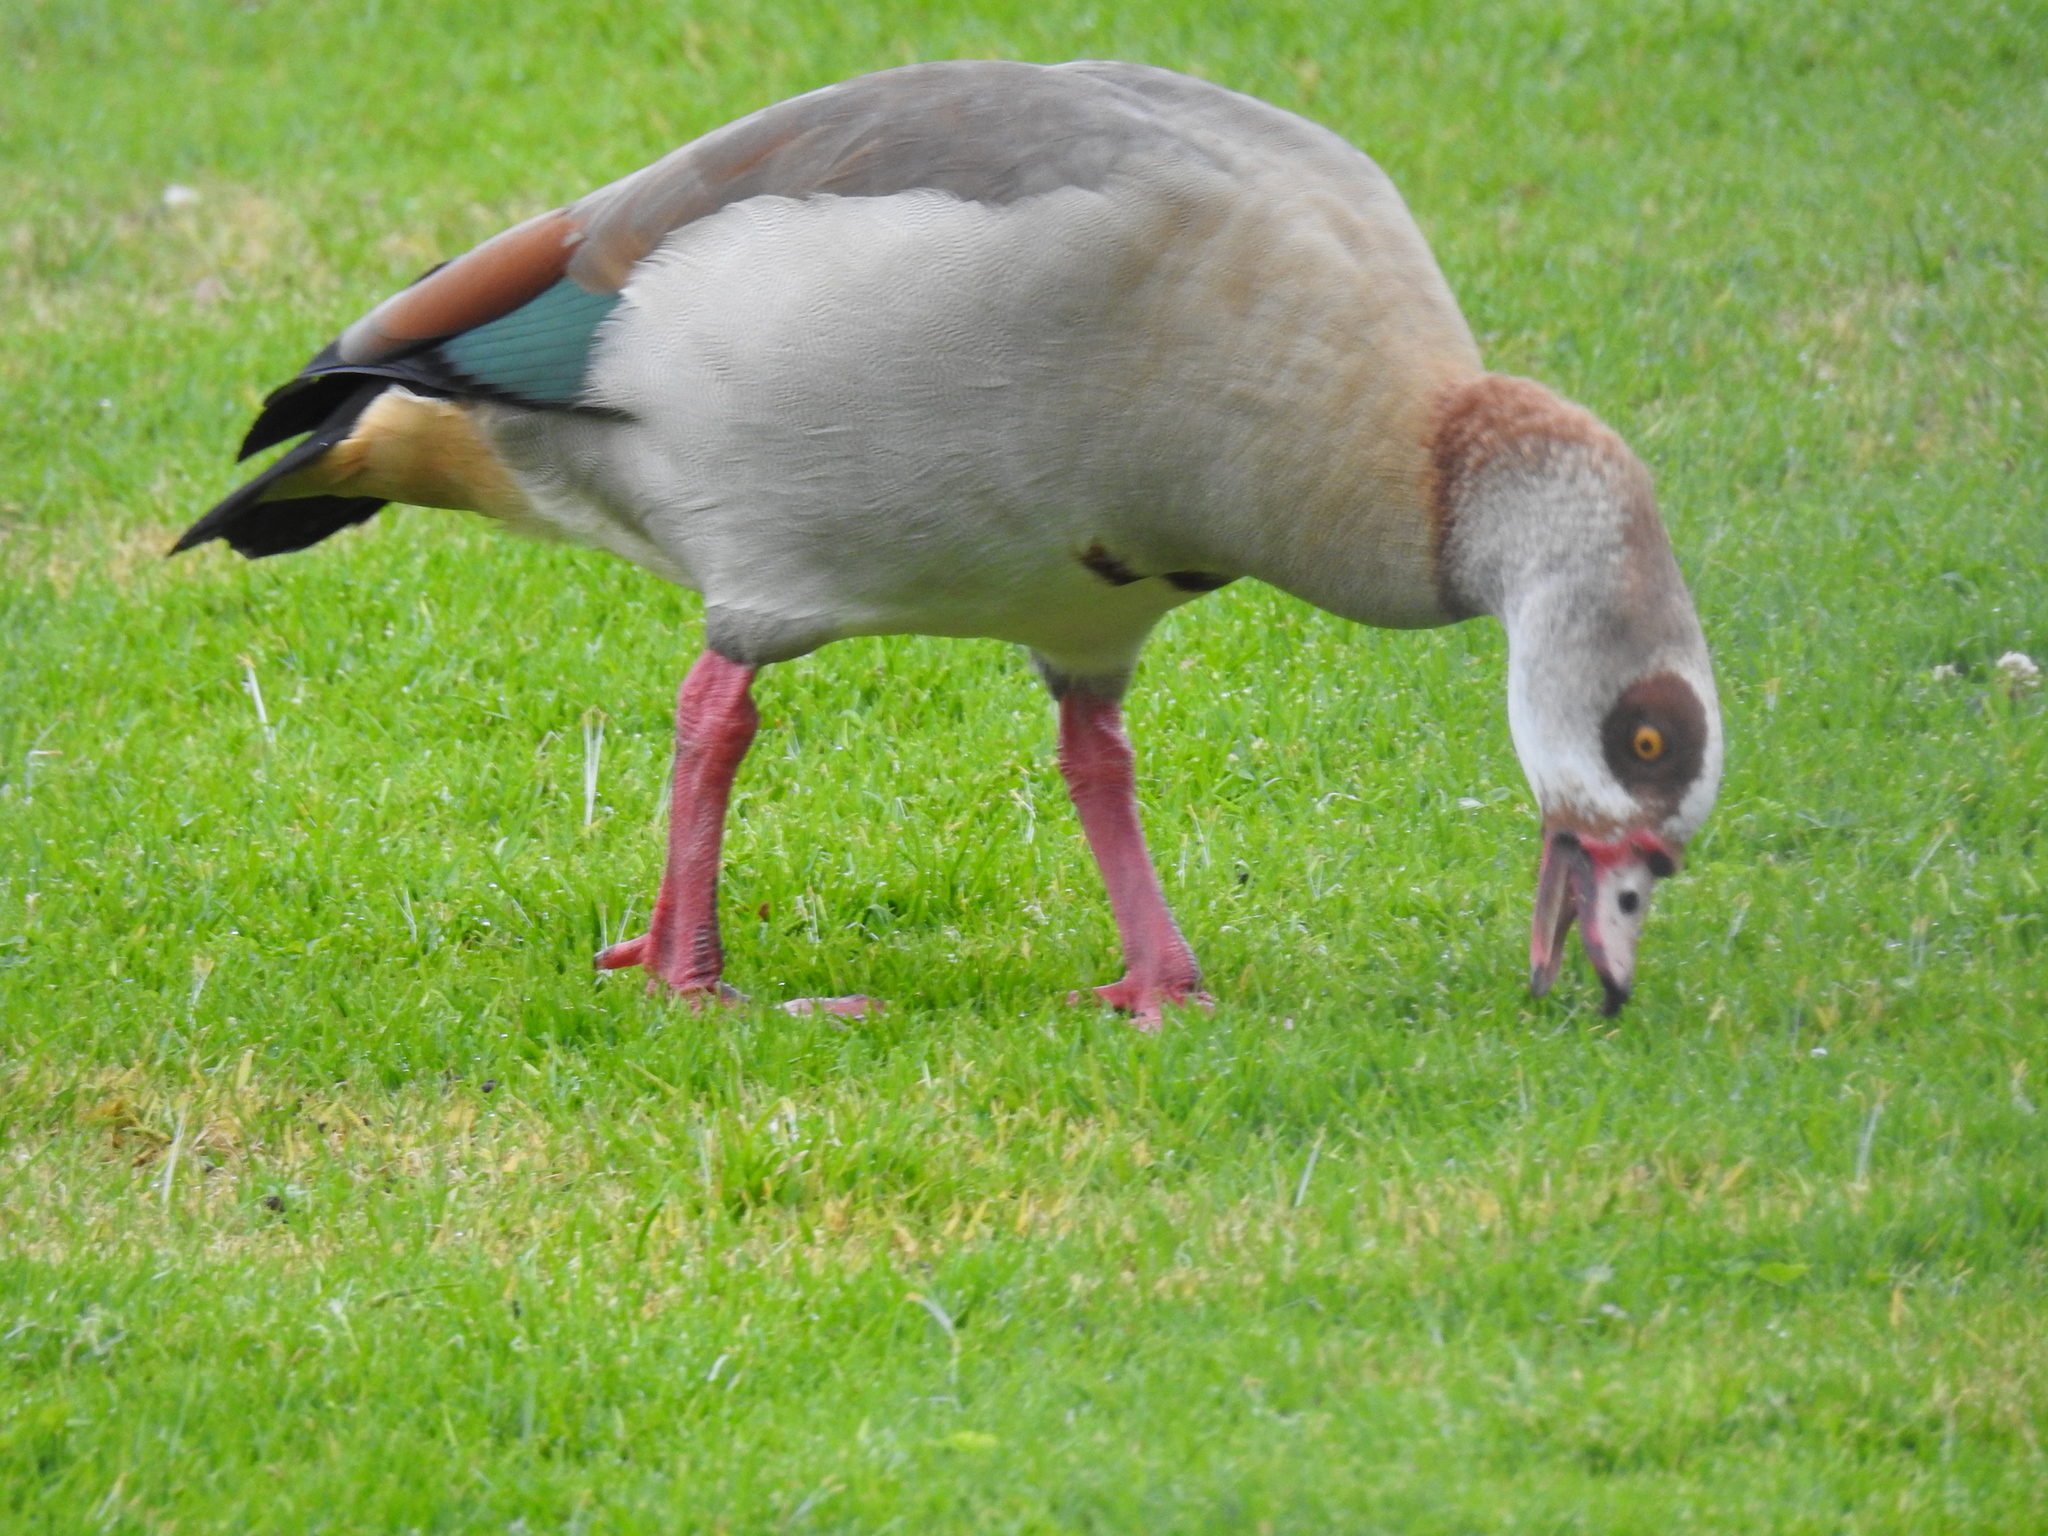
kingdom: Animalia
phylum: Chordata
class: Aves
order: Anseriformes
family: Anatidae
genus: Alopochen
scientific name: Alopochen aegyptiaca
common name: Egyptian goose
